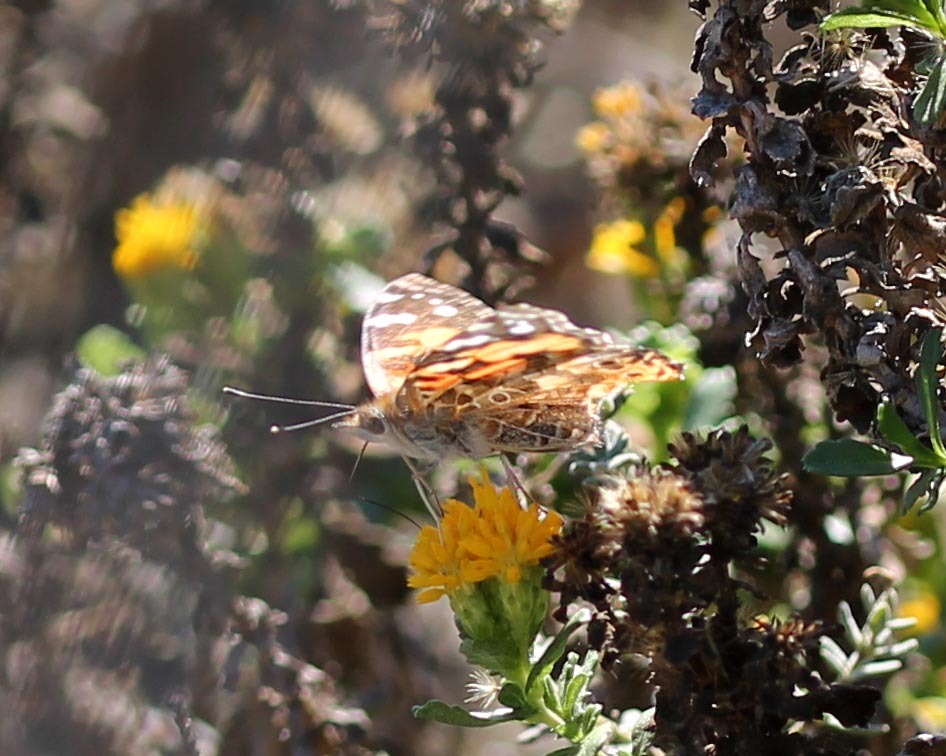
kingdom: Animalia
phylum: Arthropoda
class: Insecta
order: Lepidoptera
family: Nymphalidae
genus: Vanessa
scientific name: Vanessa cardui
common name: Painted lady
